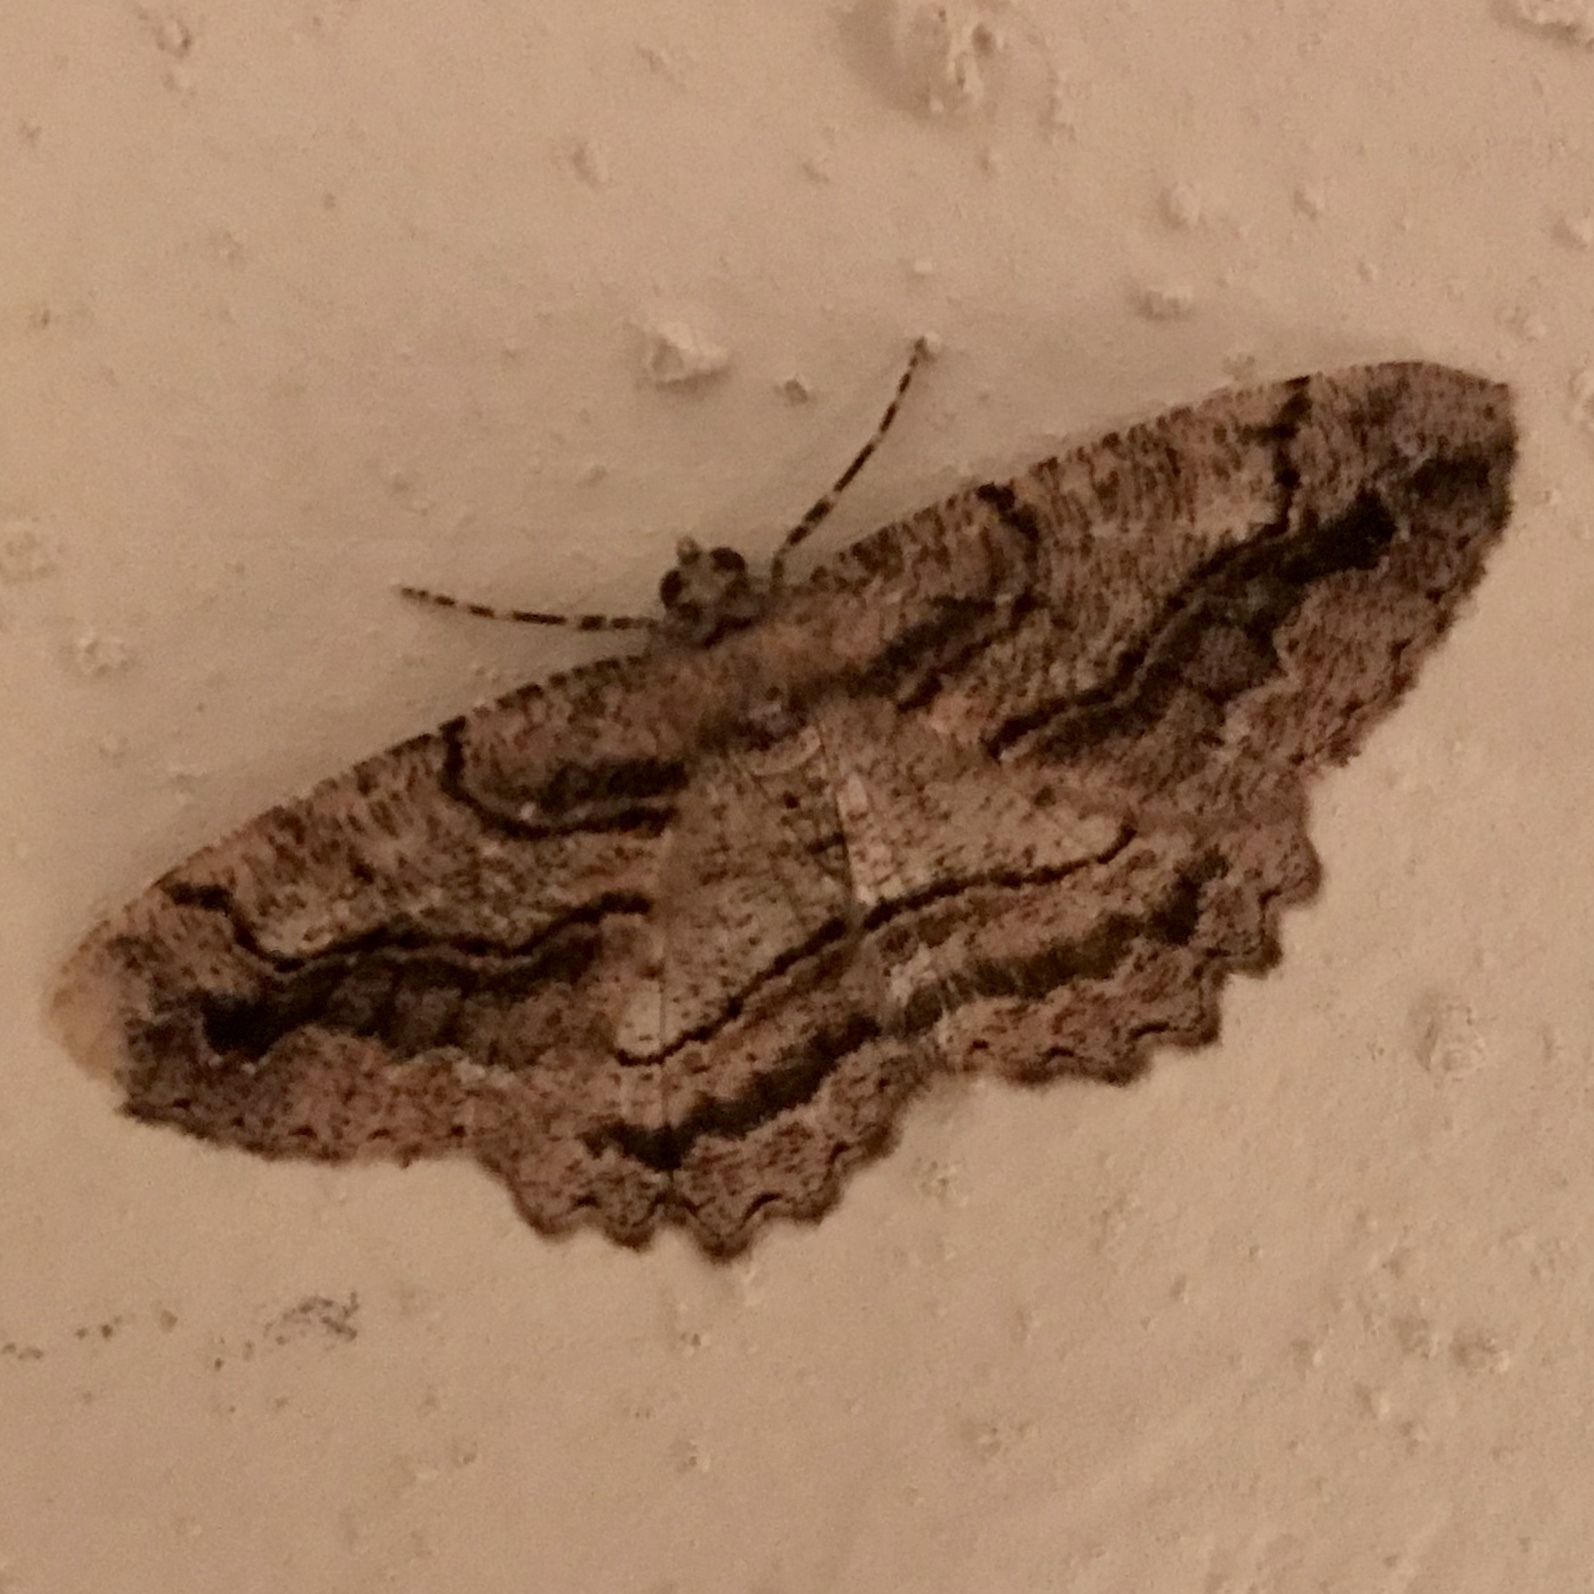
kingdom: Animalia
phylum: Arthropoda
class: Insecta
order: Lepidoptera
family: Geometridae
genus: Neoalcis
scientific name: Neoalcis californiaria
